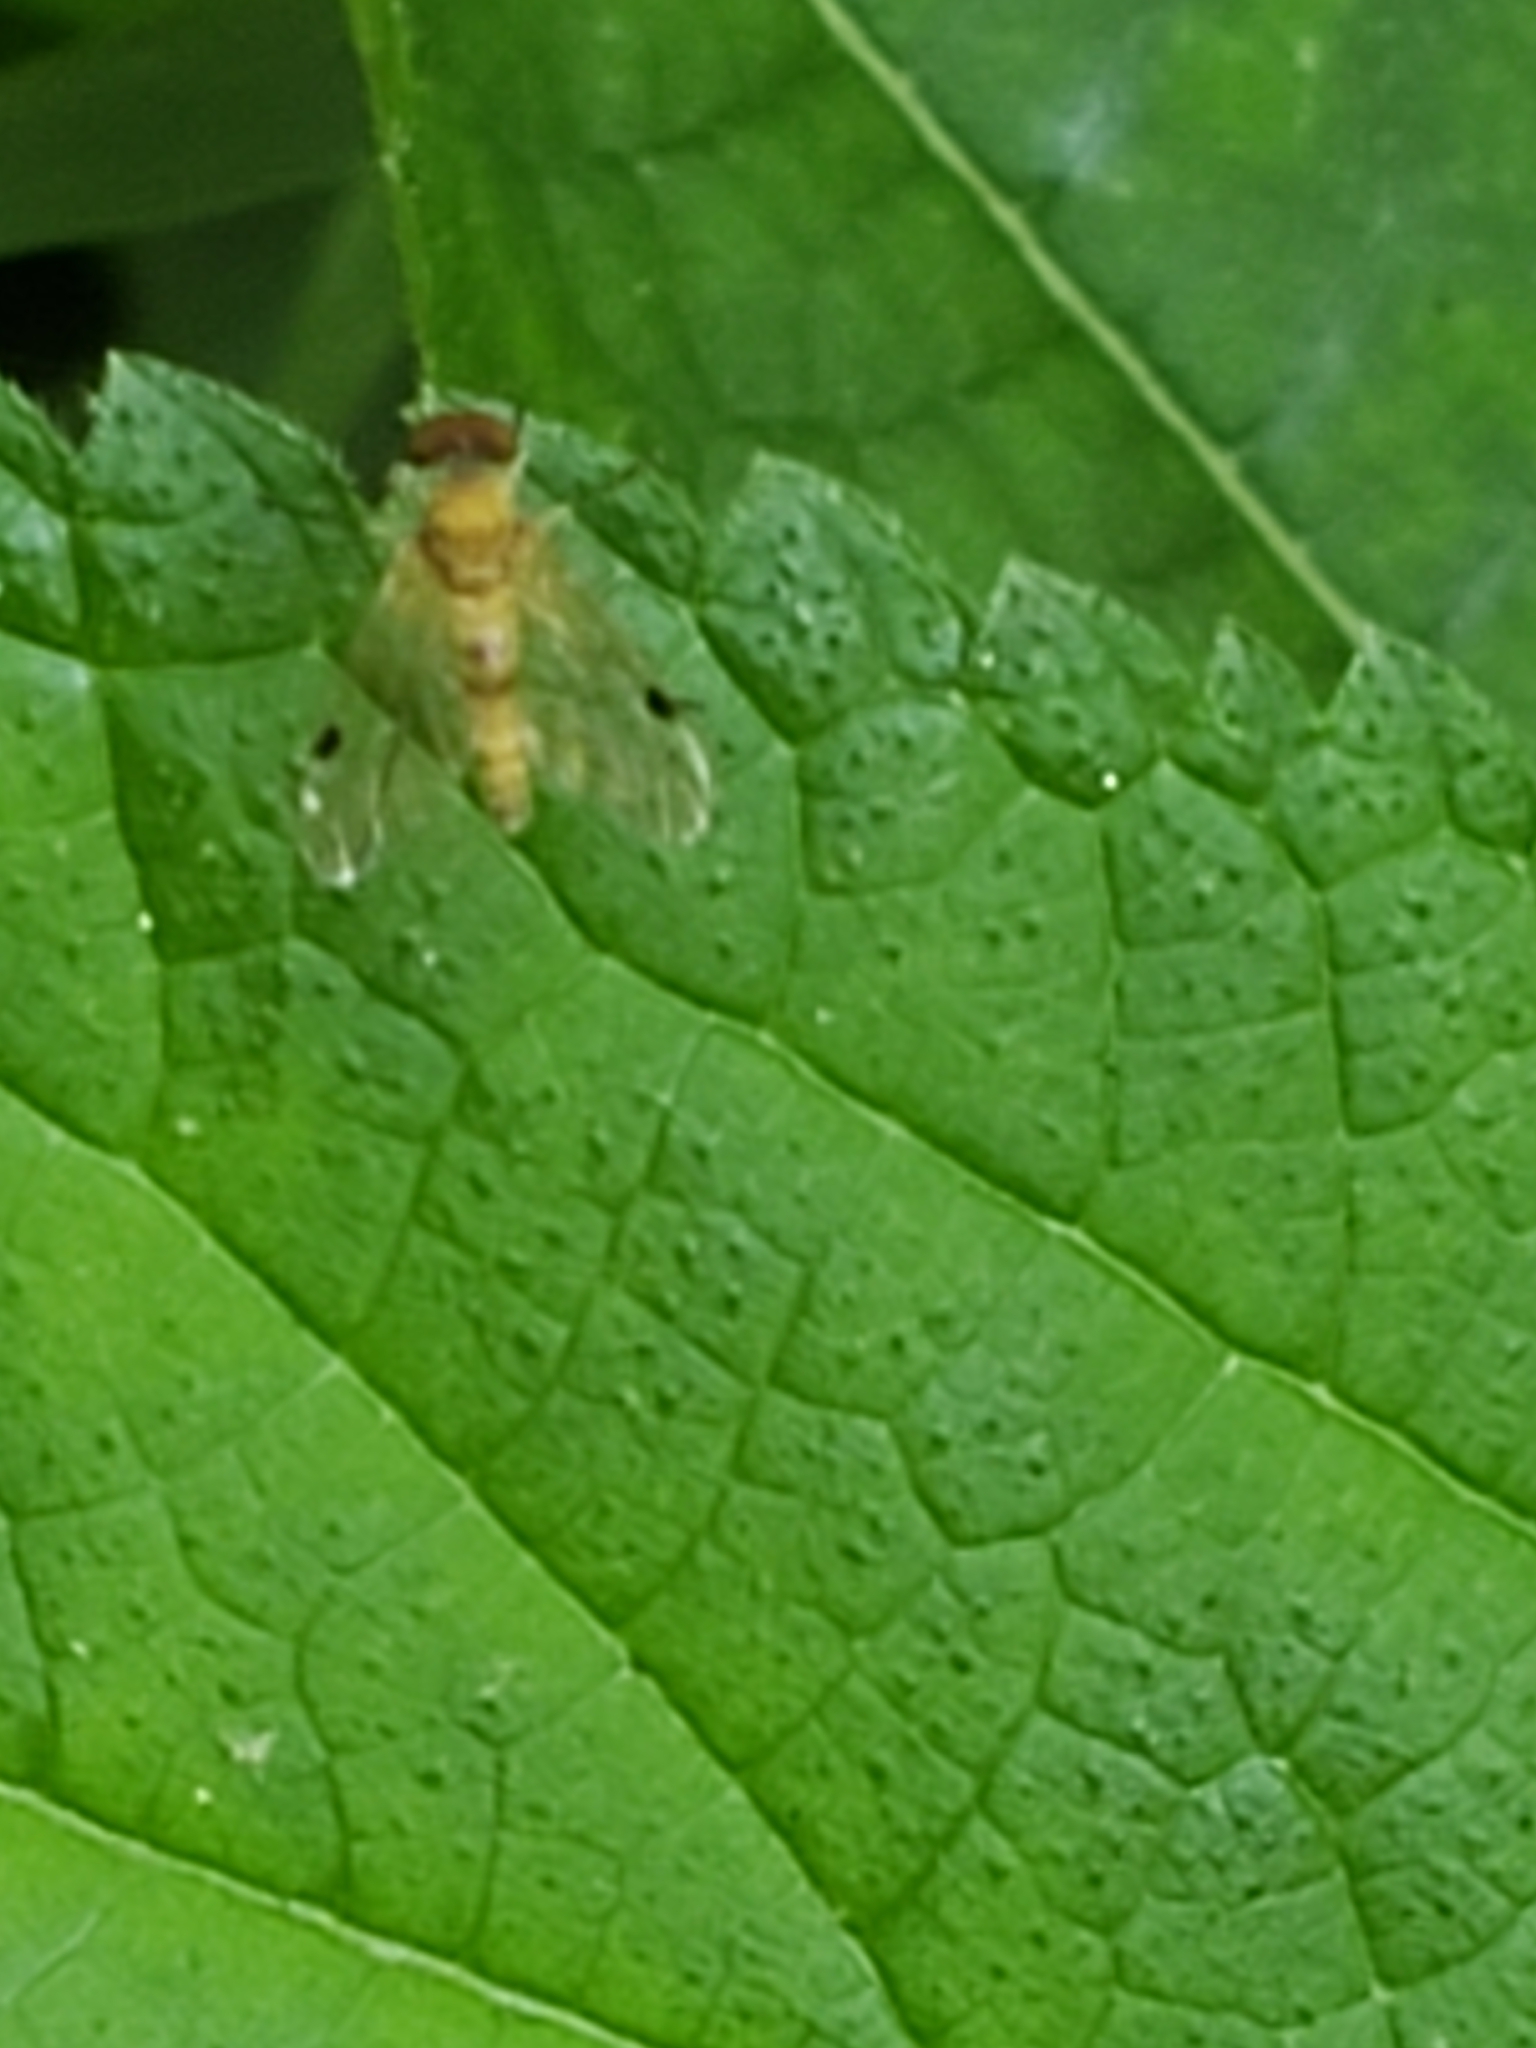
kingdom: Animalia
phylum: Arthropoda
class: Insecta
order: Diptera
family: Rhagionidae
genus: Chrysopilus
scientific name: Chrysopilus modestus
